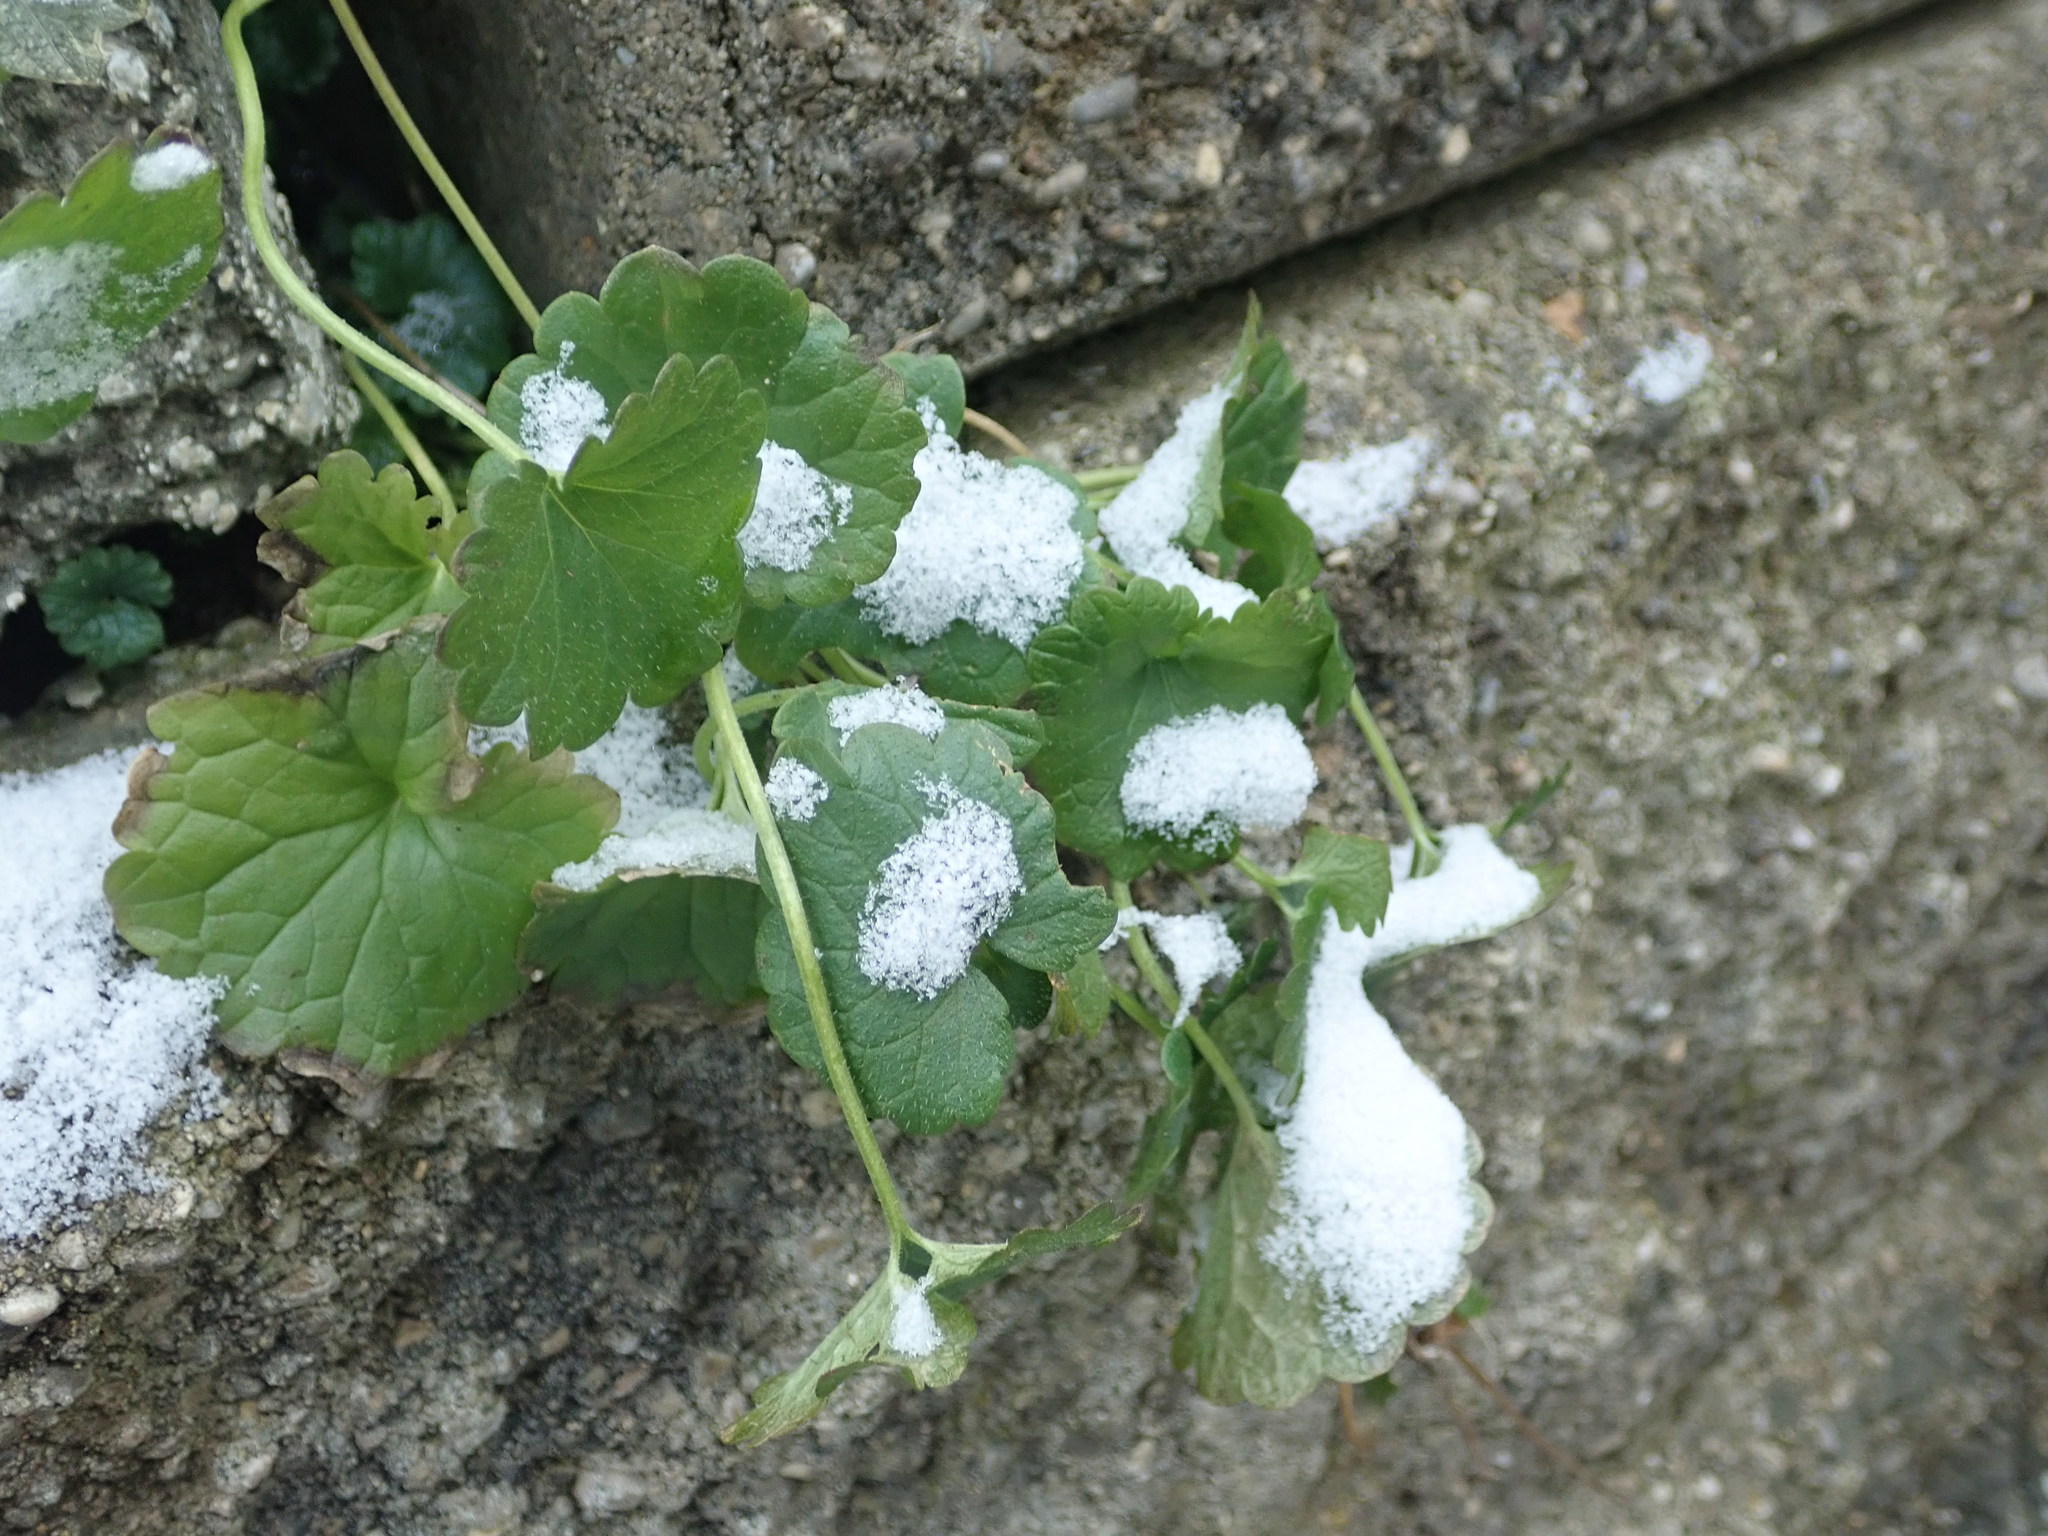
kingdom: Plantae
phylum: Tracheophyta
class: Magnoliopsida
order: Lamiales
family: Lamiaceae
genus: Glechoma
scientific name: Glechoma hederacea
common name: Ground ivy
